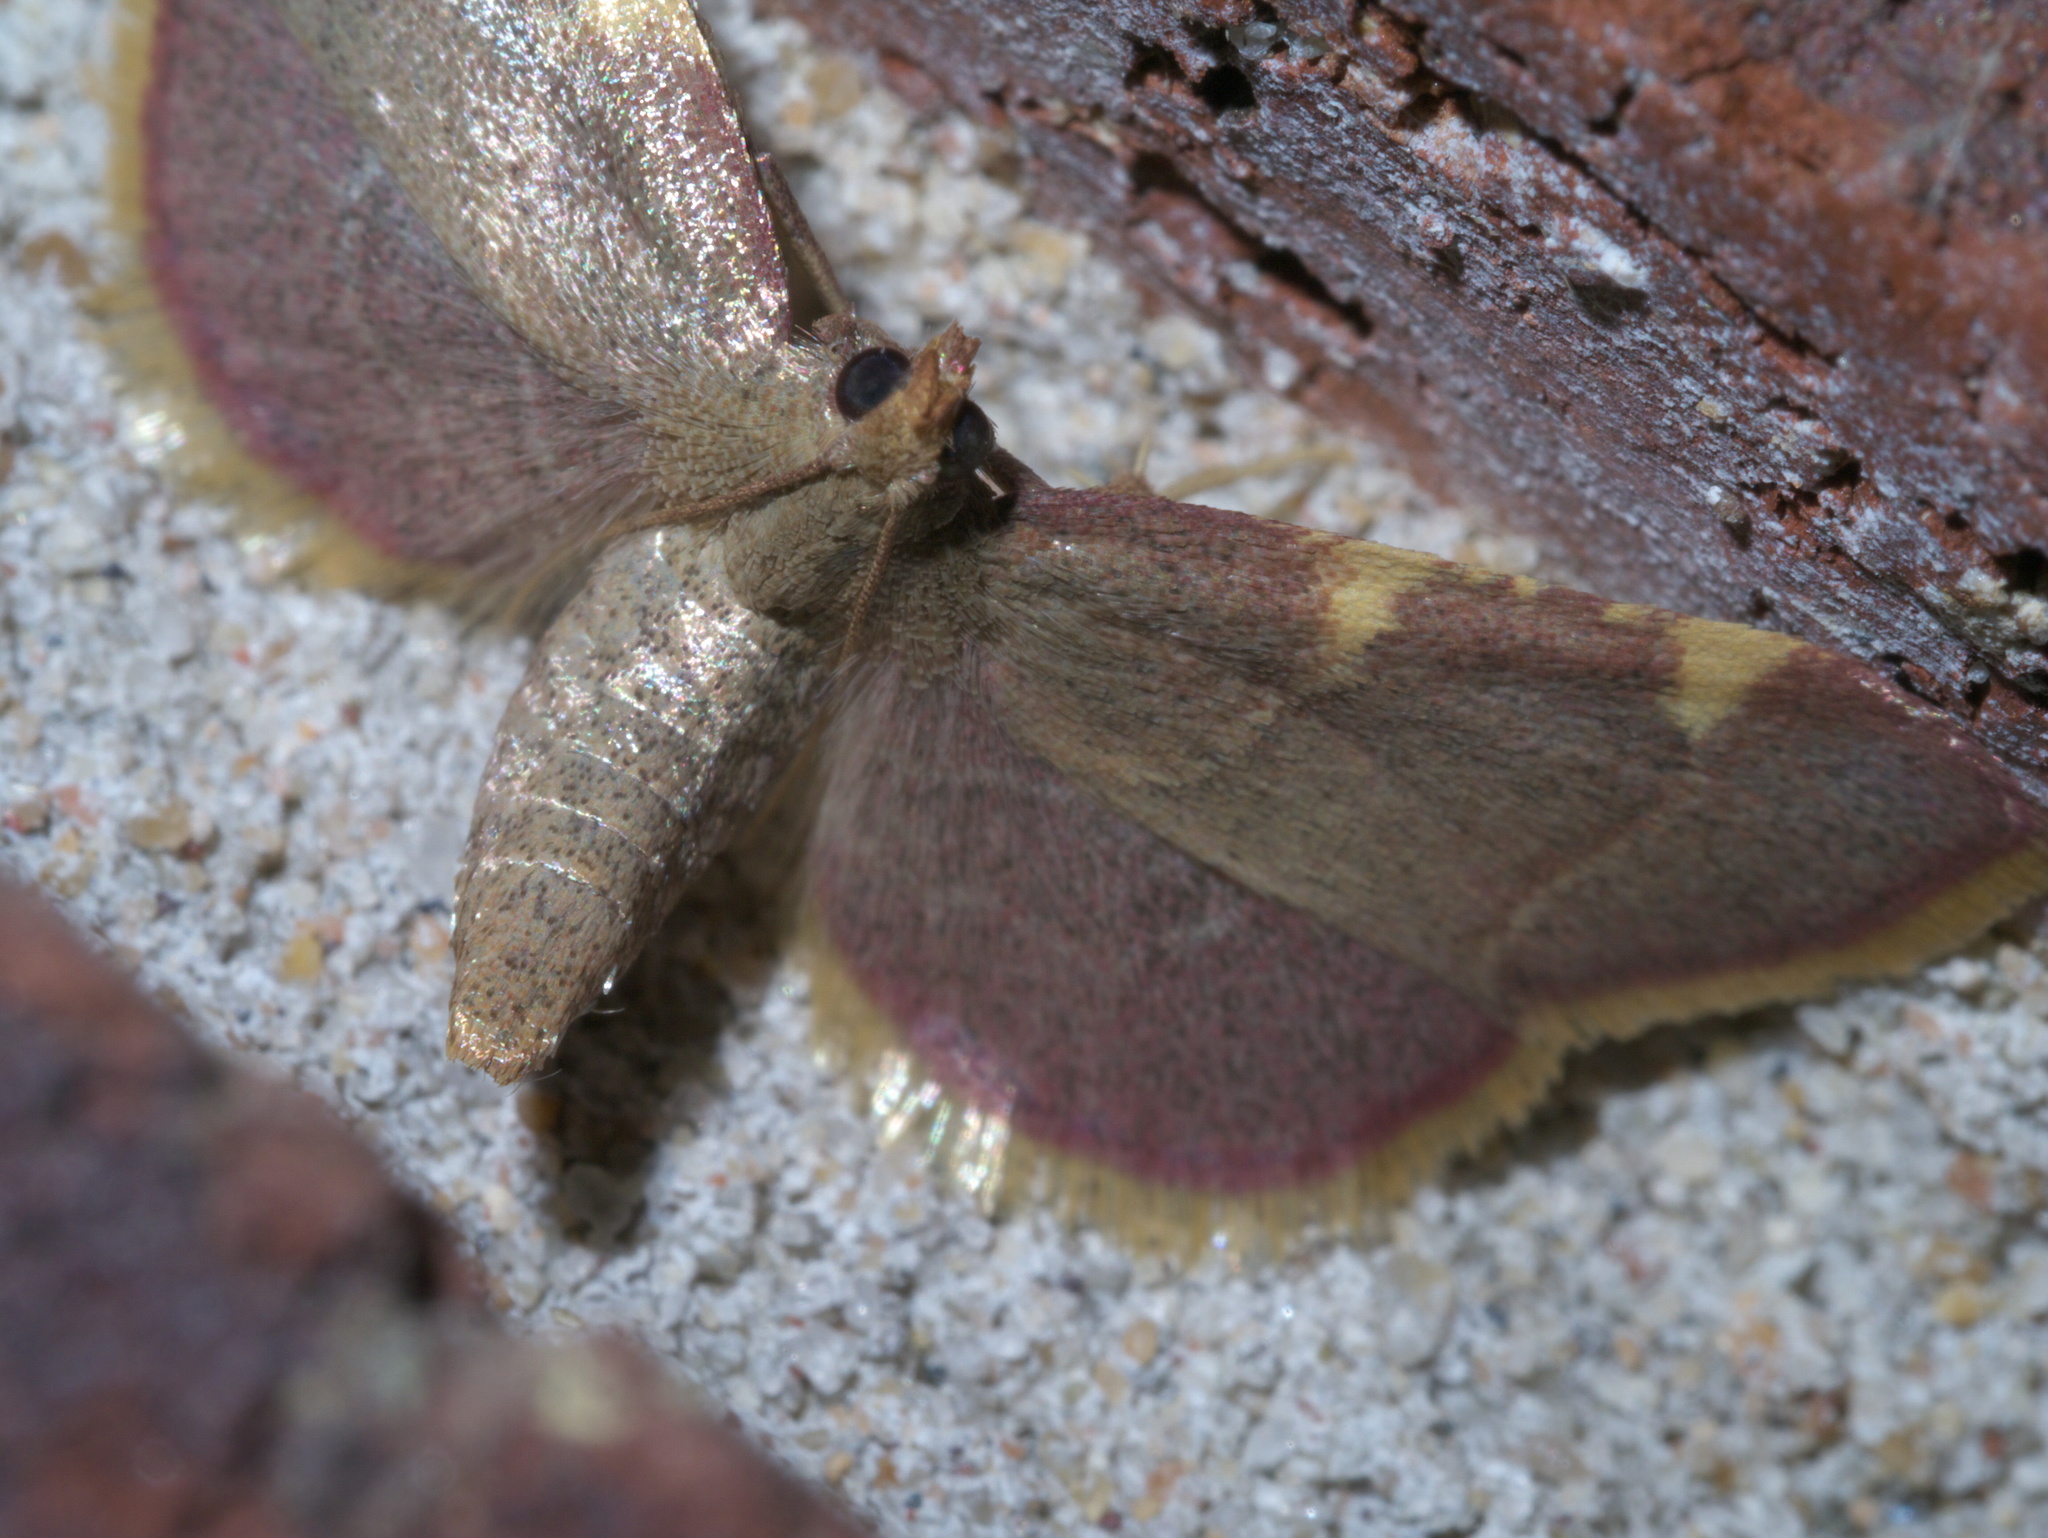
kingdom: Animalia
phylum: Arthropoda
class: Insecta
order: Lepidoptera
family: Pyralidae
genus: Hypsopygia
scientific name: Hypsopygia olinalis
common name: Yellow-fringed dolichomia moth
